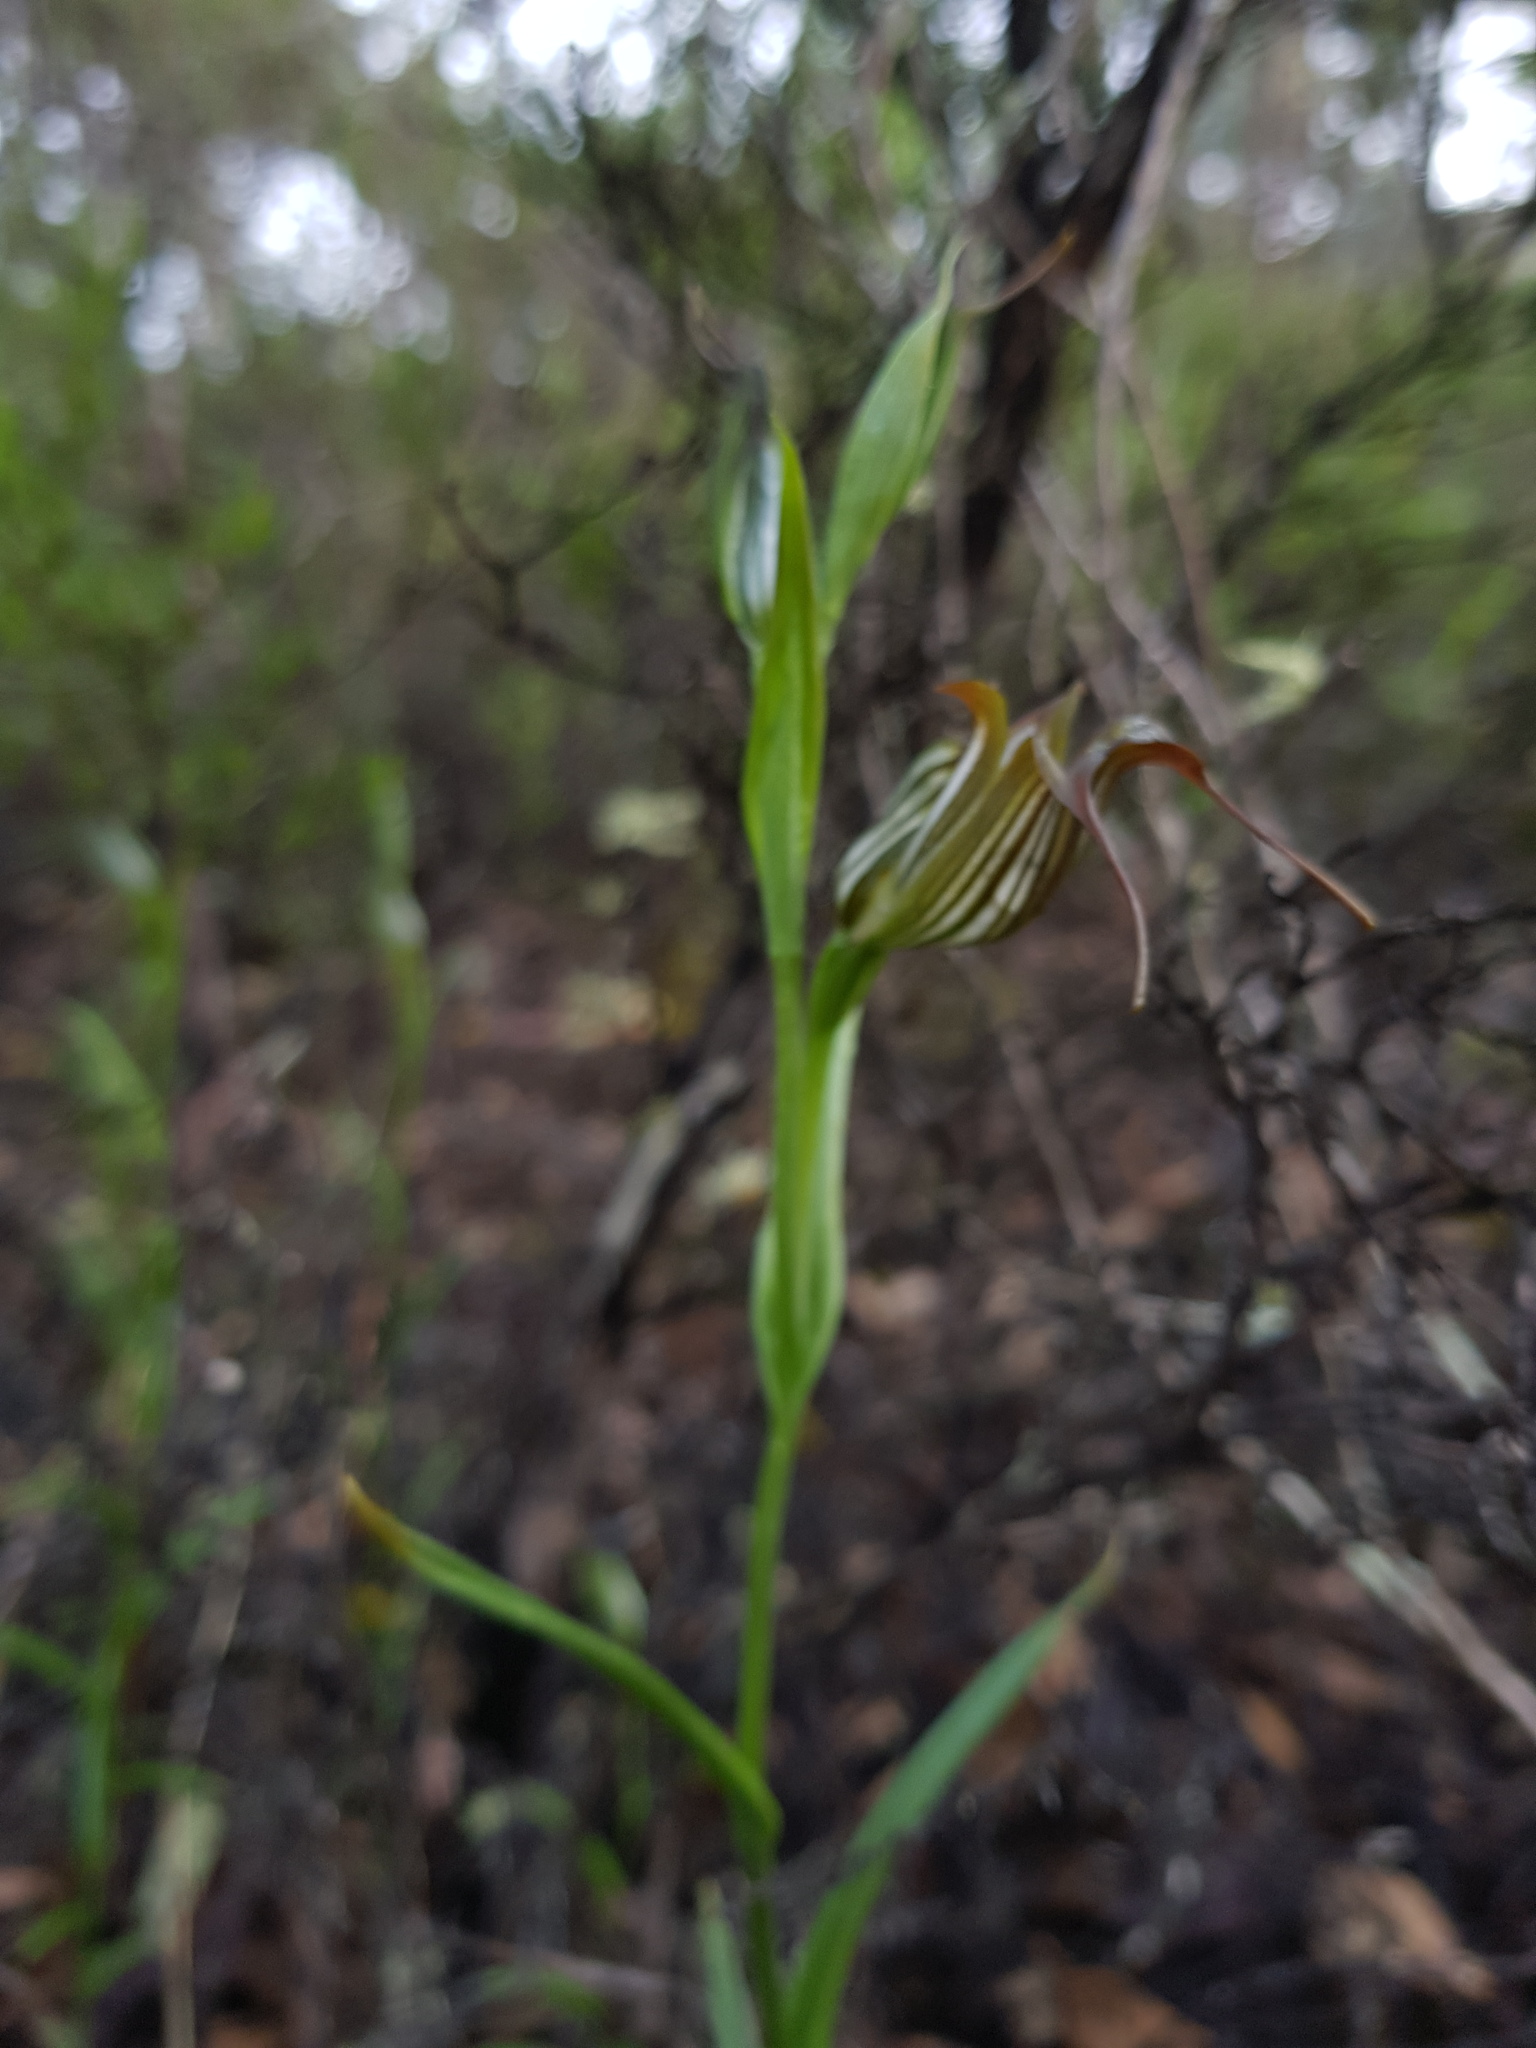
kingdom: Plantae
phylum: Tracheophyta
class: Liliopsida
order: Asparagales
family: Orchidaceae
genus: Pterostylis
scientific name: Pterostylis recurva
